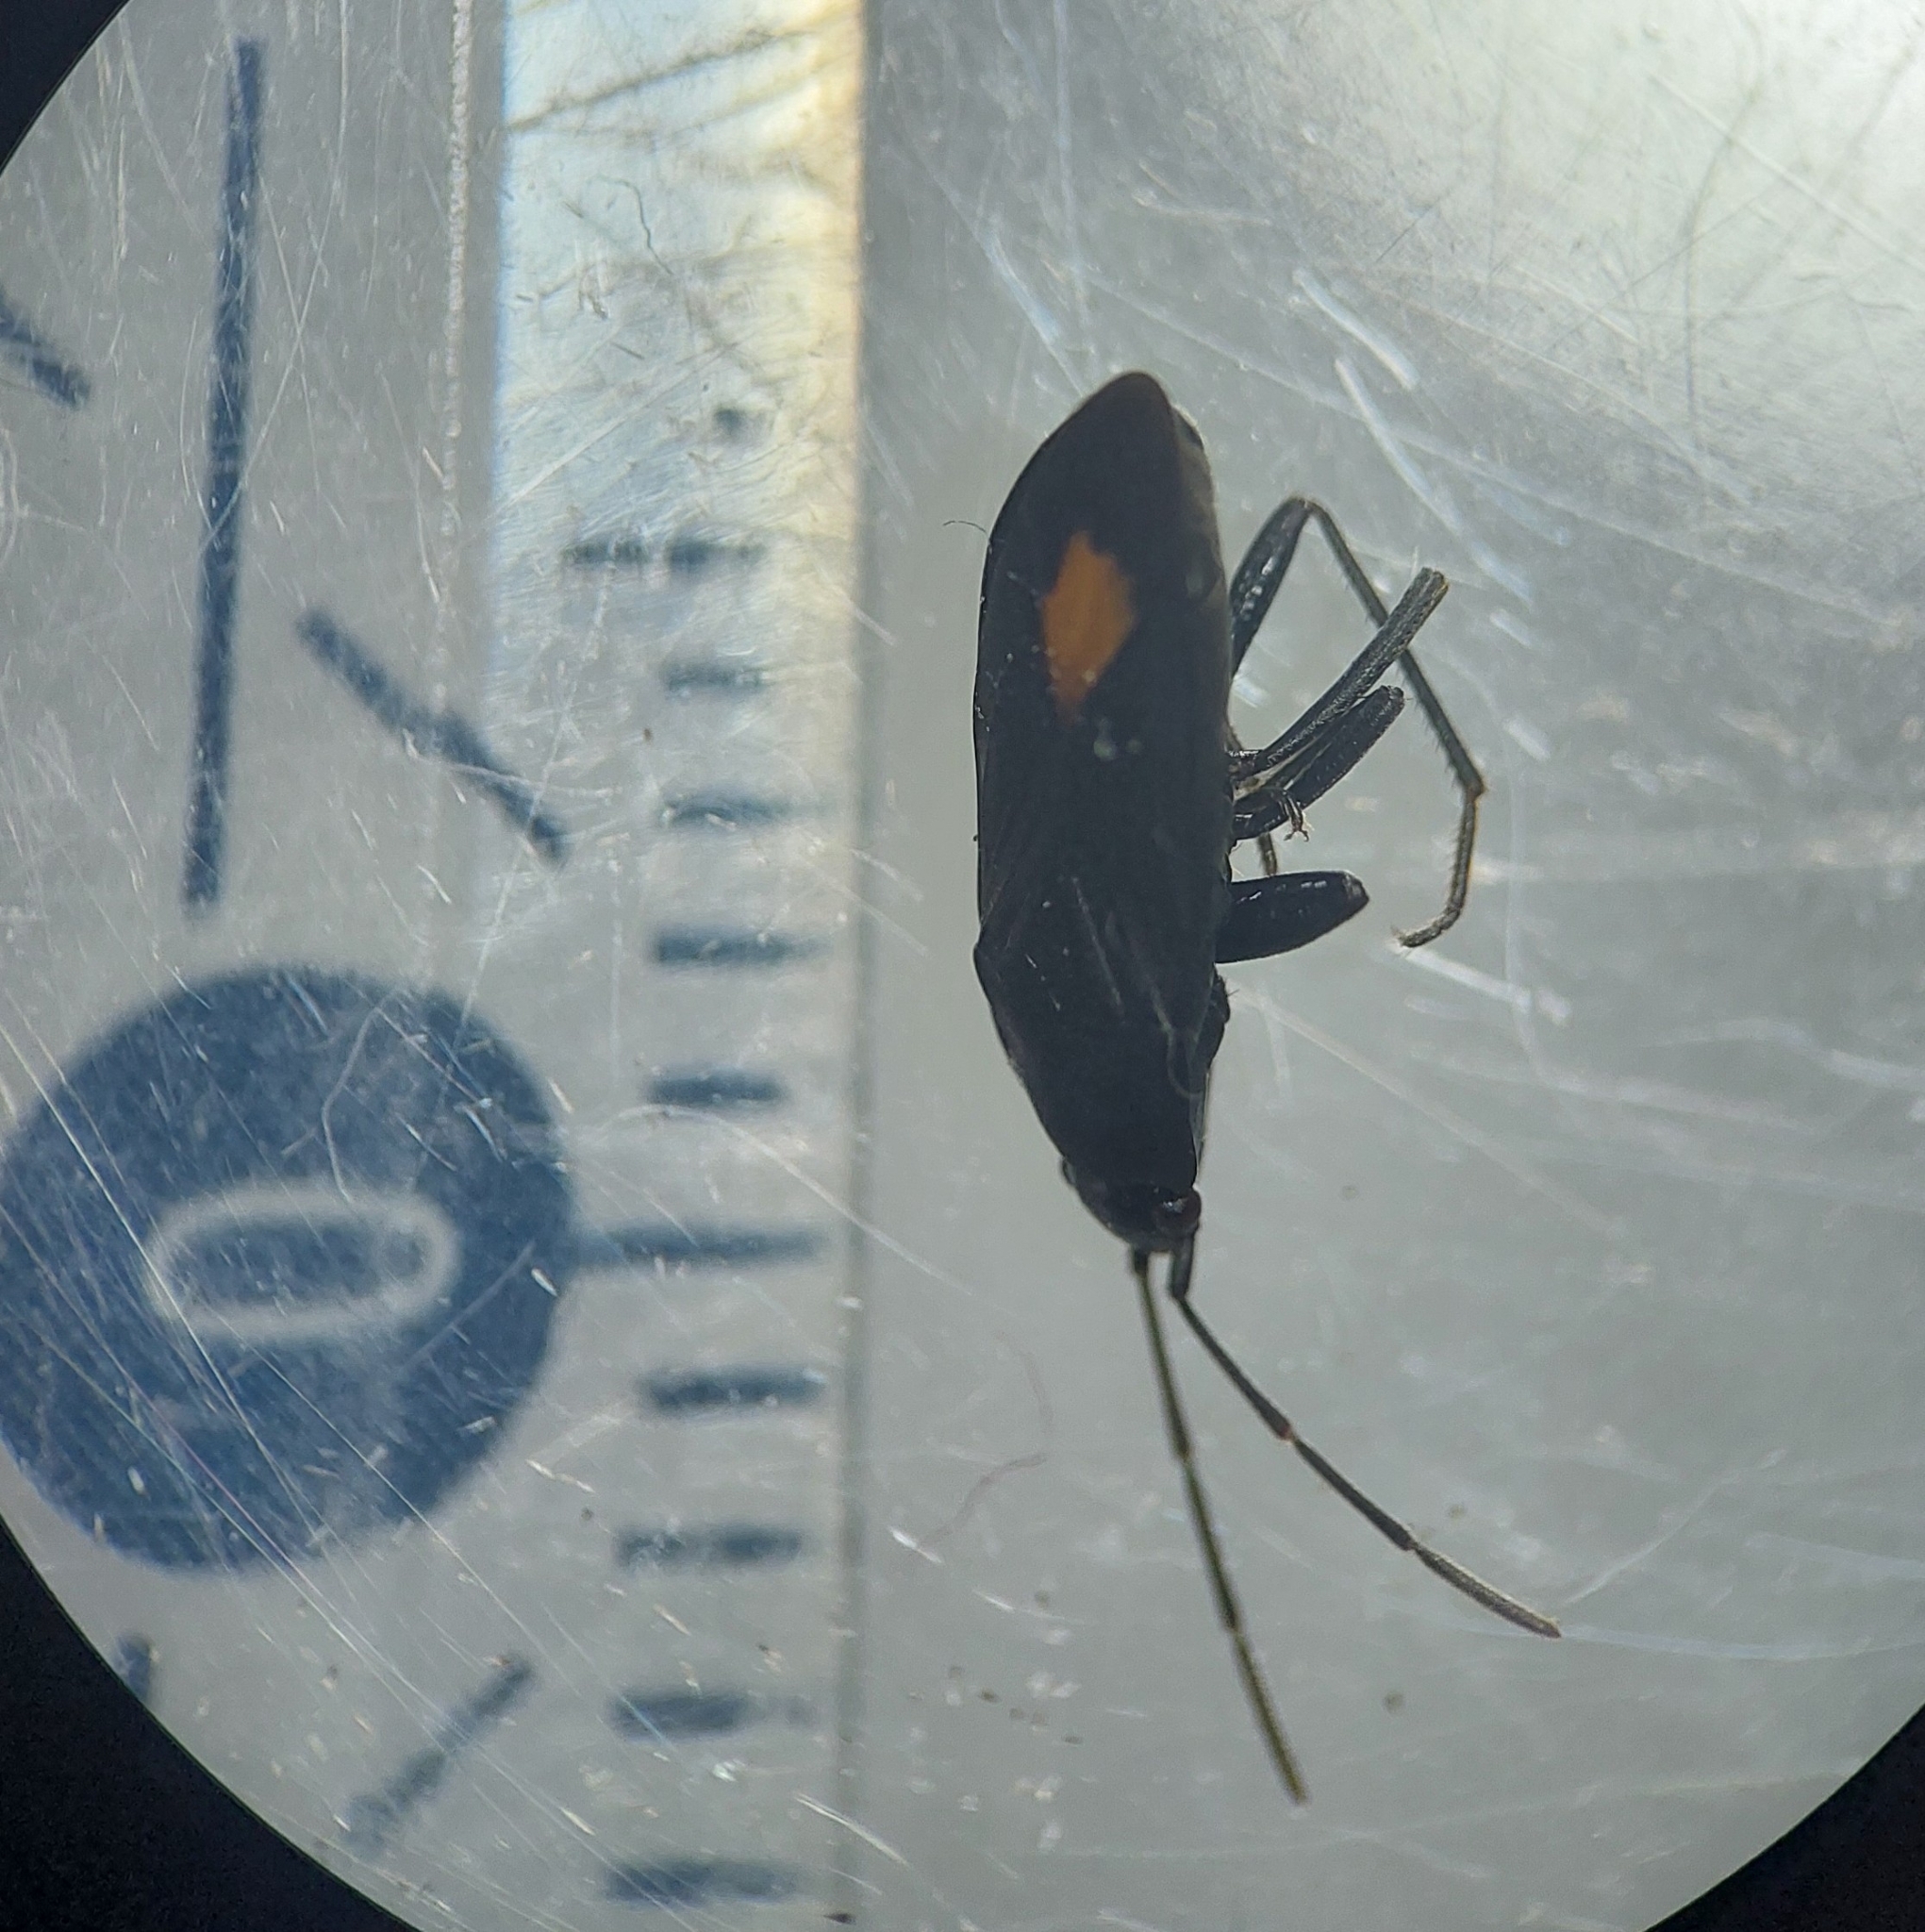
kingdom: Animalia
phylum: Arthropoda
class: Insecta
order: Hemiptera
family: Rhyparochromidae
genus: Aphanus
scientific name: Aphanus rolandri
